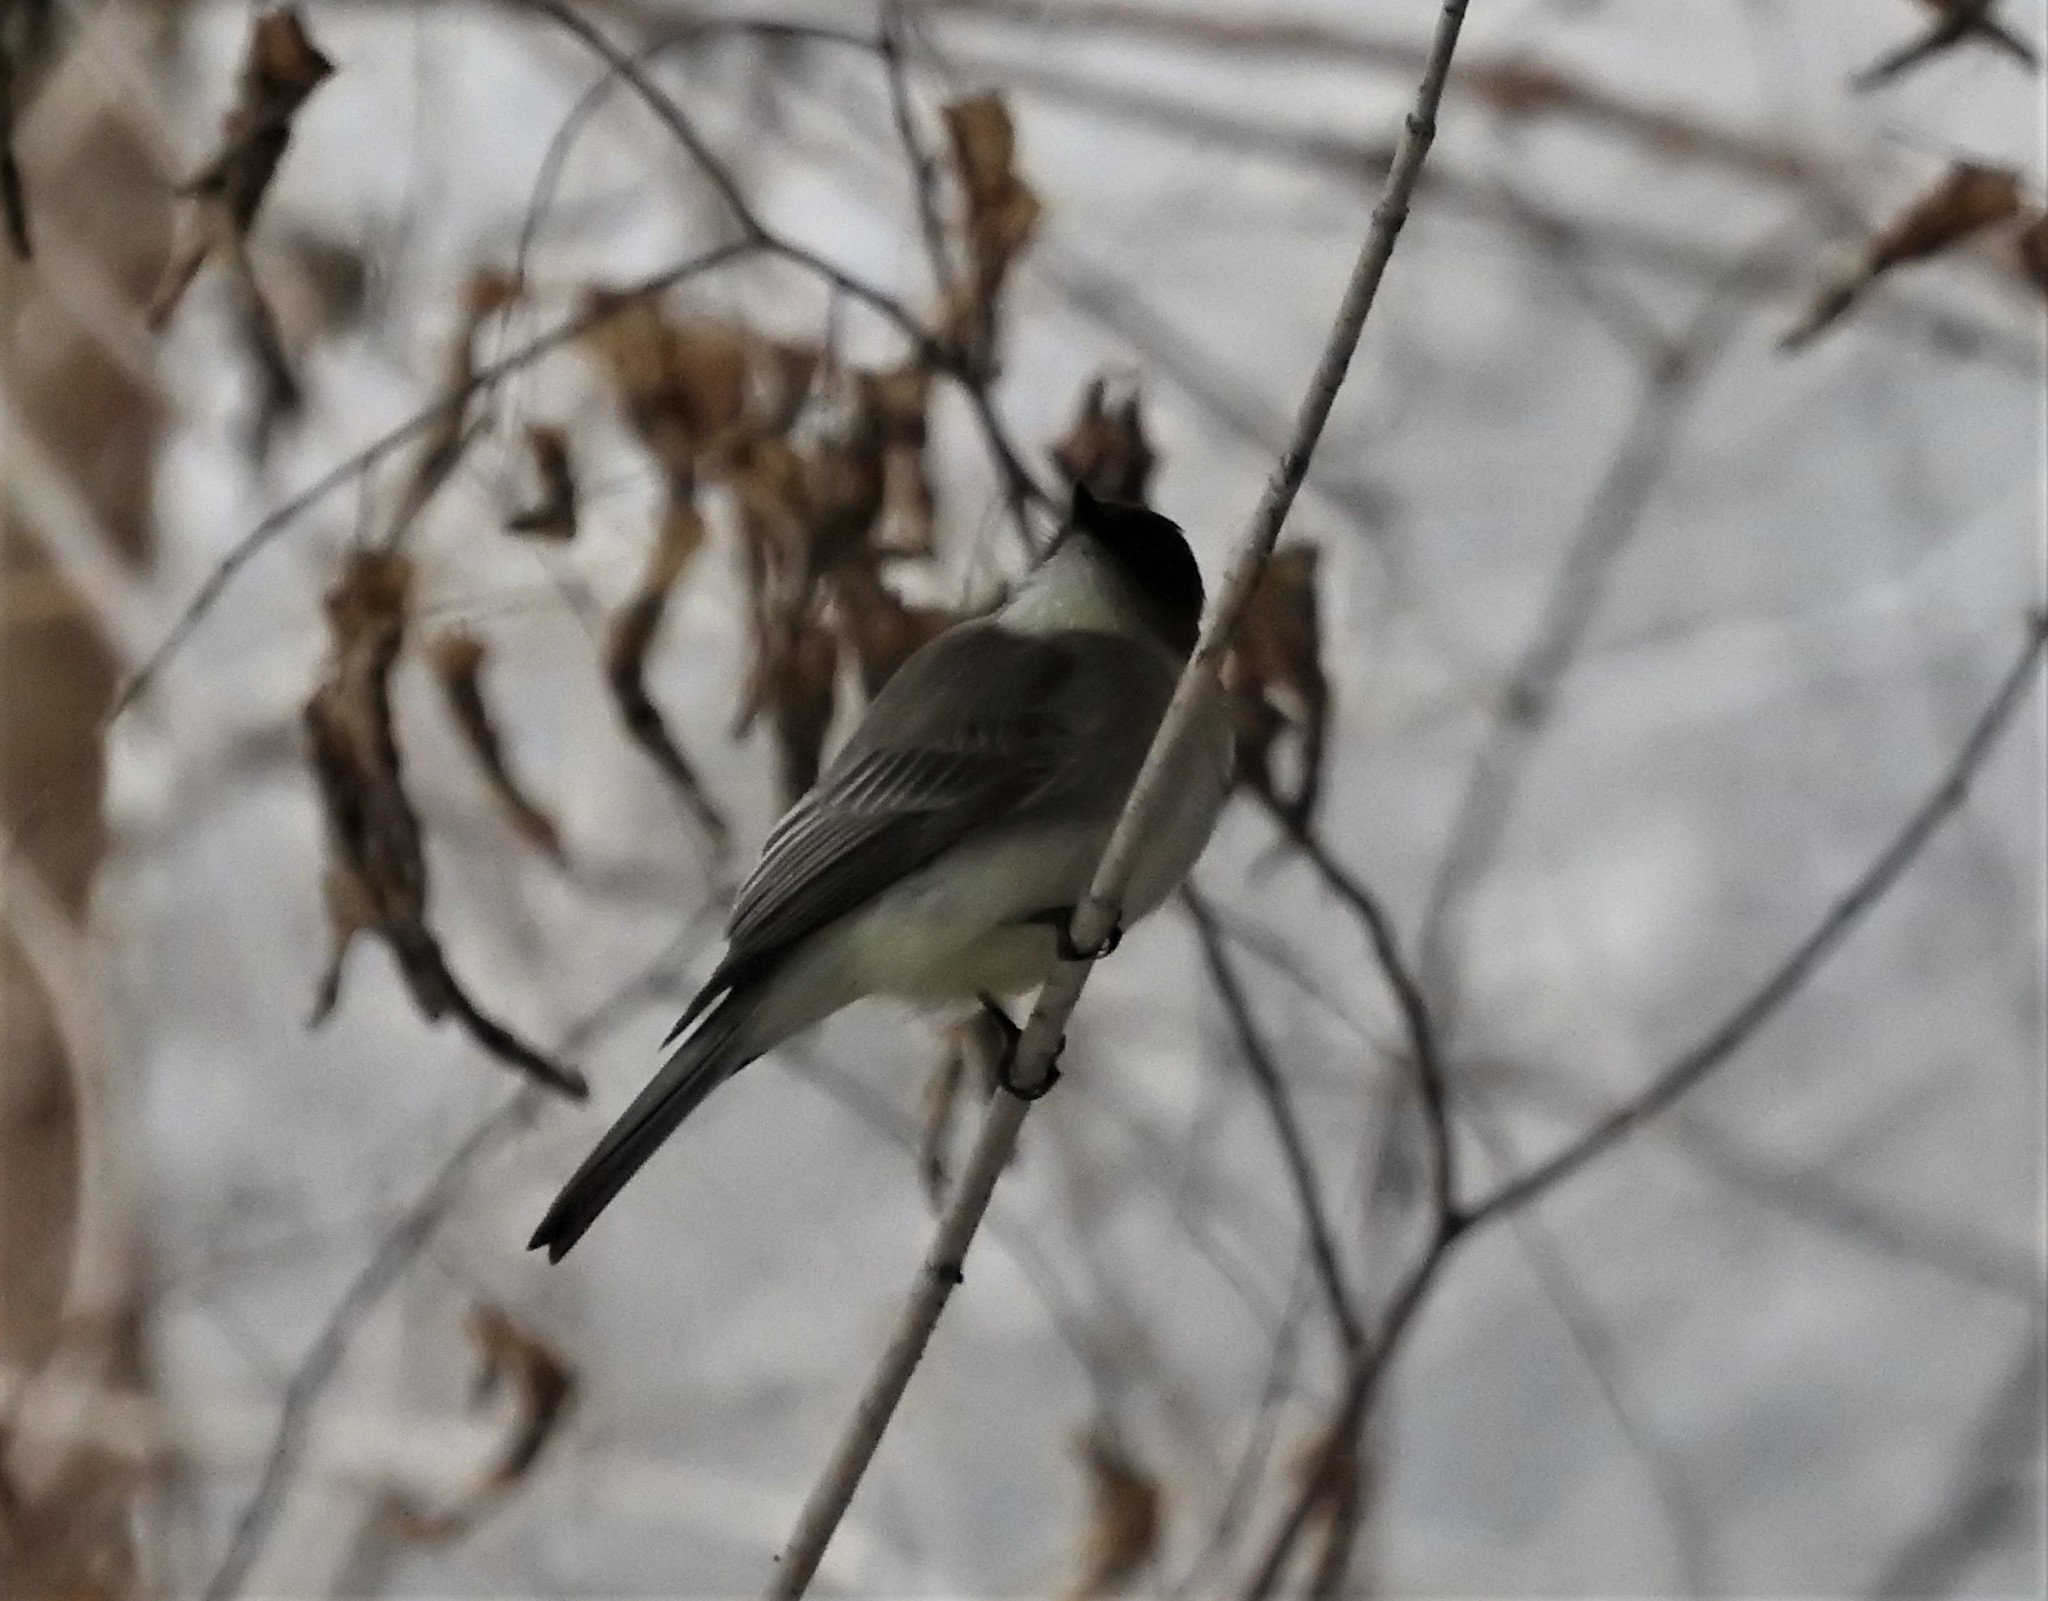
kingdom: Animalia
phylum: Chordata
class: Aves
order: Passeriformes
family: Tyrannidae
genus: Sayornis
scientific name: Sayornis phoebe
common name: Eastern phoebe
